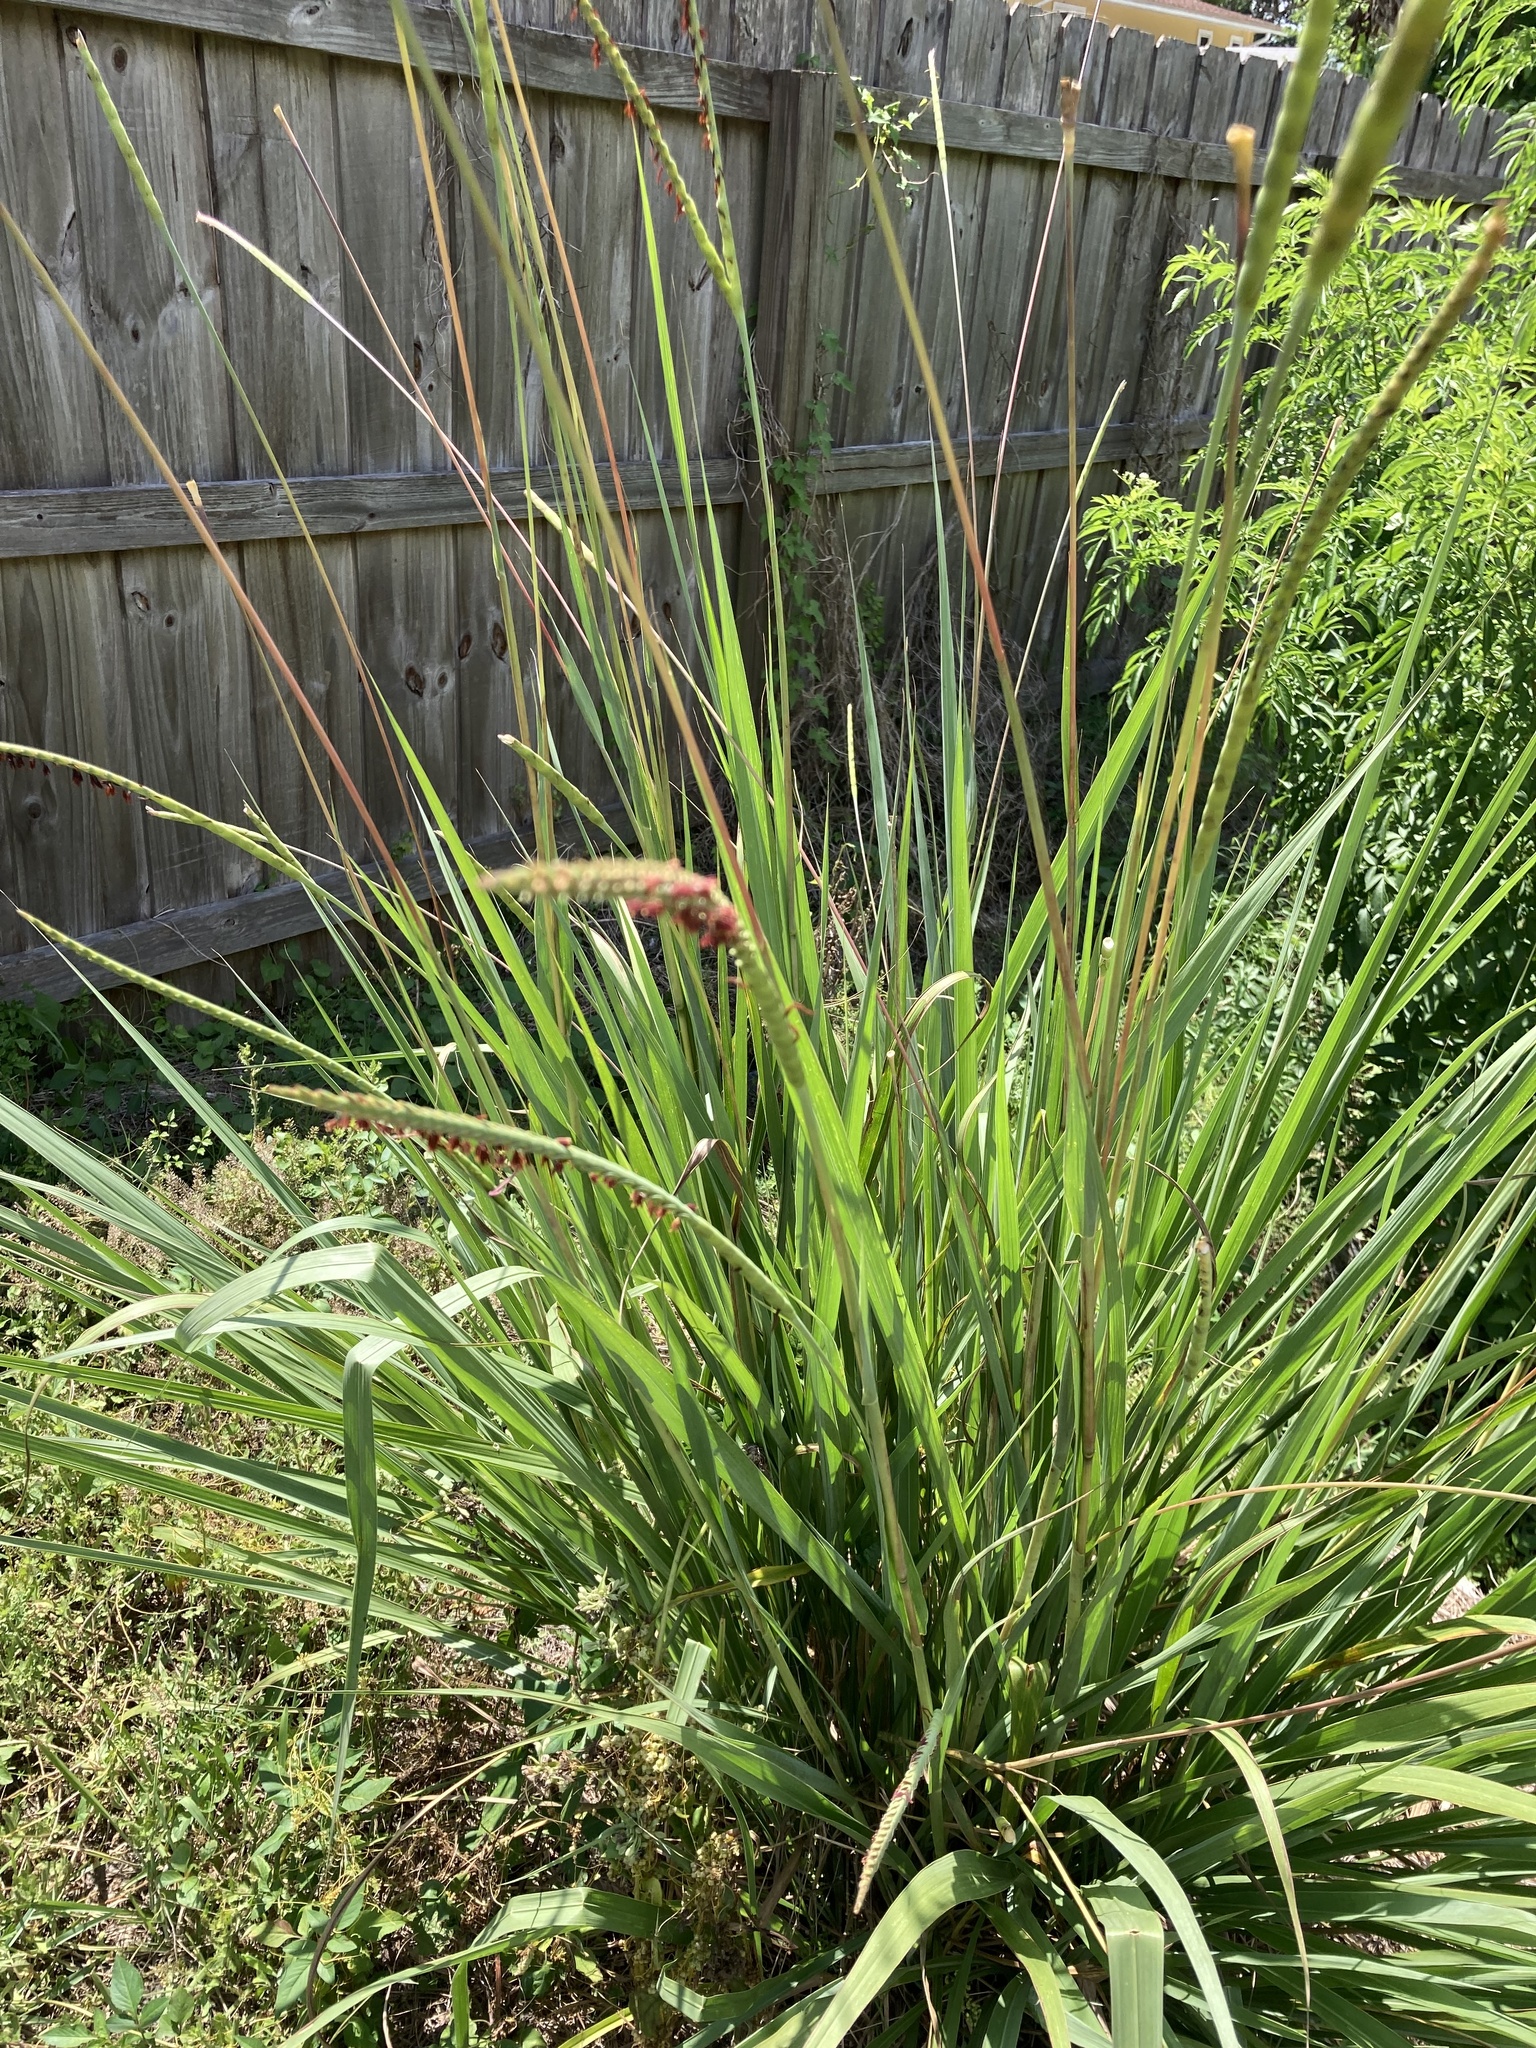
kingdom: Plantae
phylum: Tracheophyta
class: Liliopsida
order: Poales
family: Poaceae
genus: Tripsacum
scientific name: Tripsacum dactyloides
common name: Buffalo-grass
